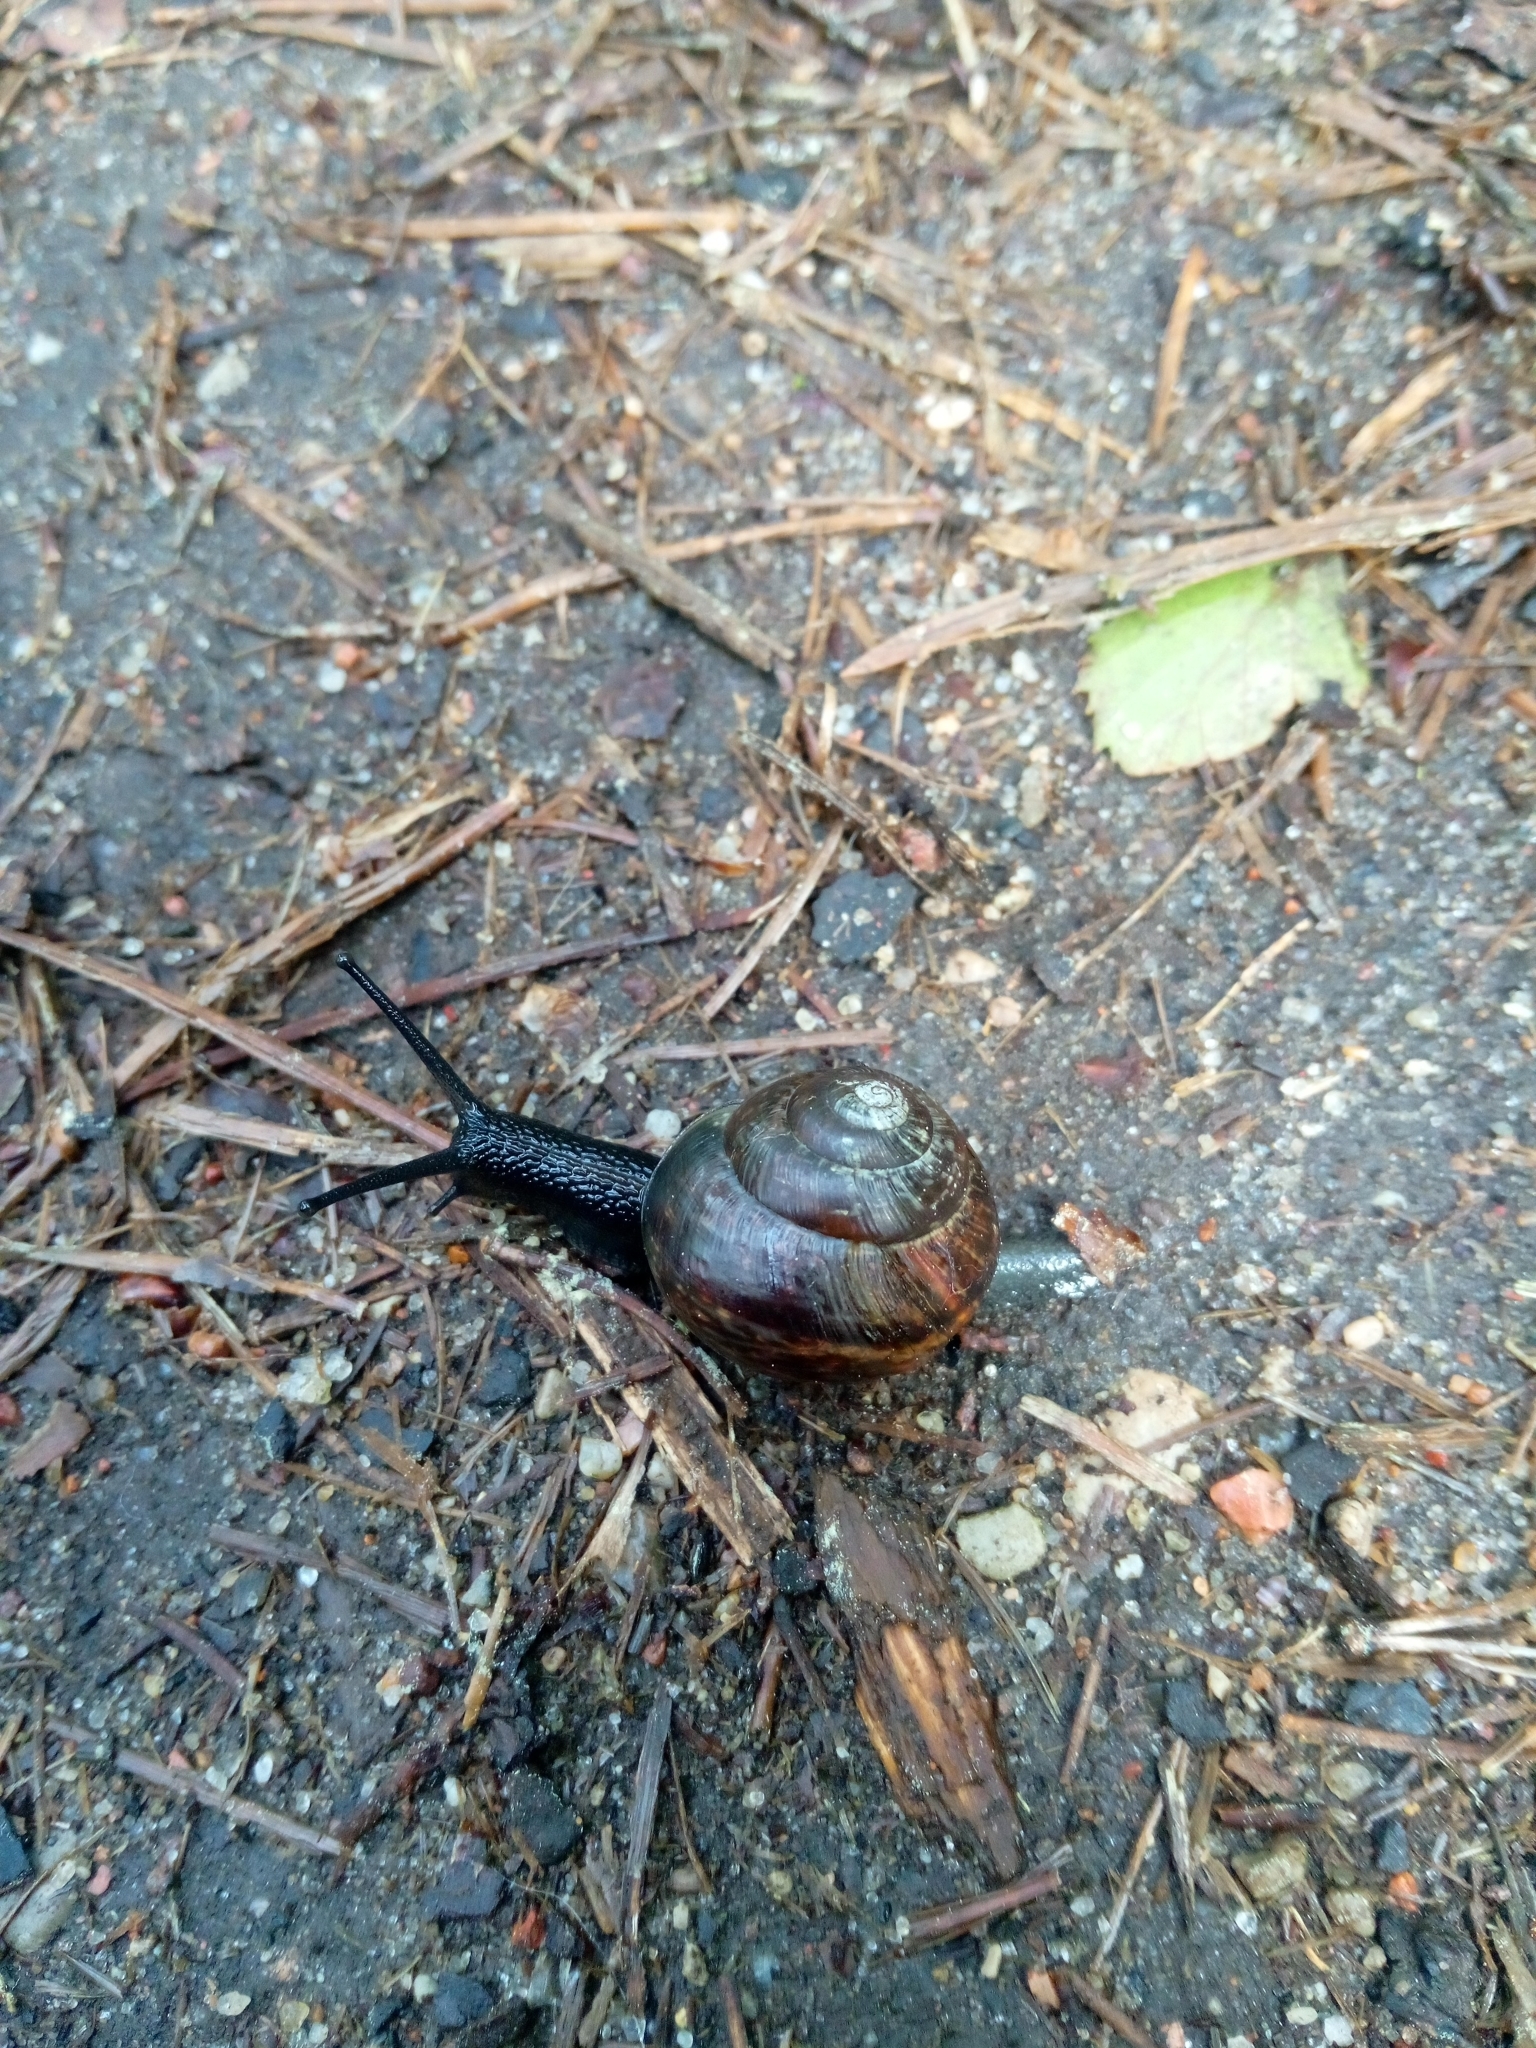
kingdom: Animalia
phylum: Mollusca
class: Gastropoda
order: Stylommatophora
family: Helicidae
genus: Arianta
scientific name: Arianta arbustorum
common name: Copse snail
